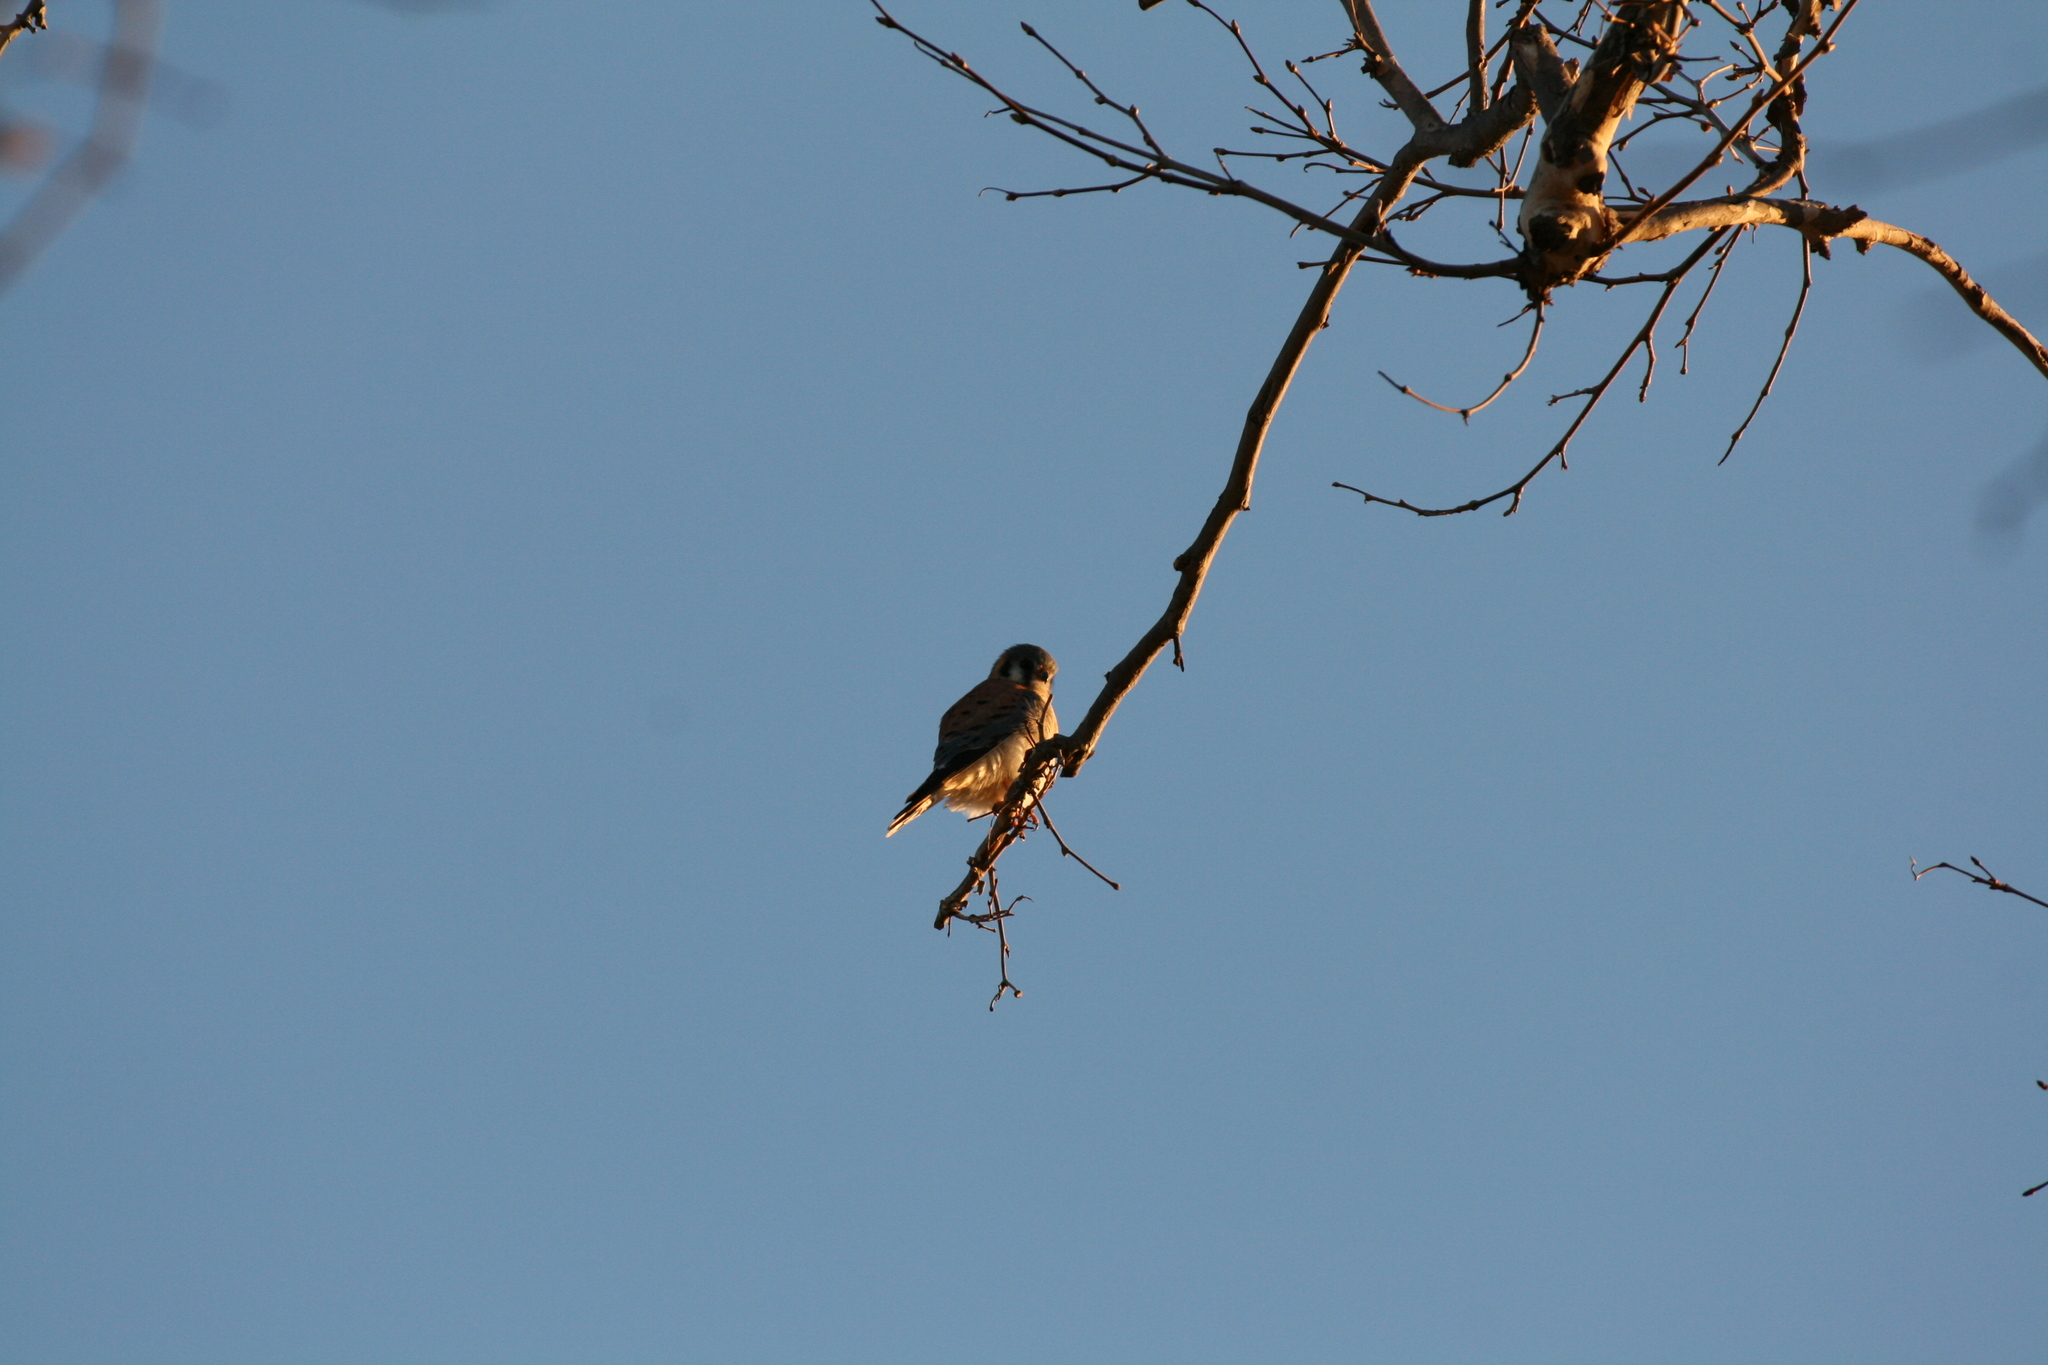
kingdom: Animalia
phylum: Chordata
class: Aves
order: Falconiformes
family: Falconidae
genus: Falco
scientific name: Falco sparverius
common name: American kestrel
